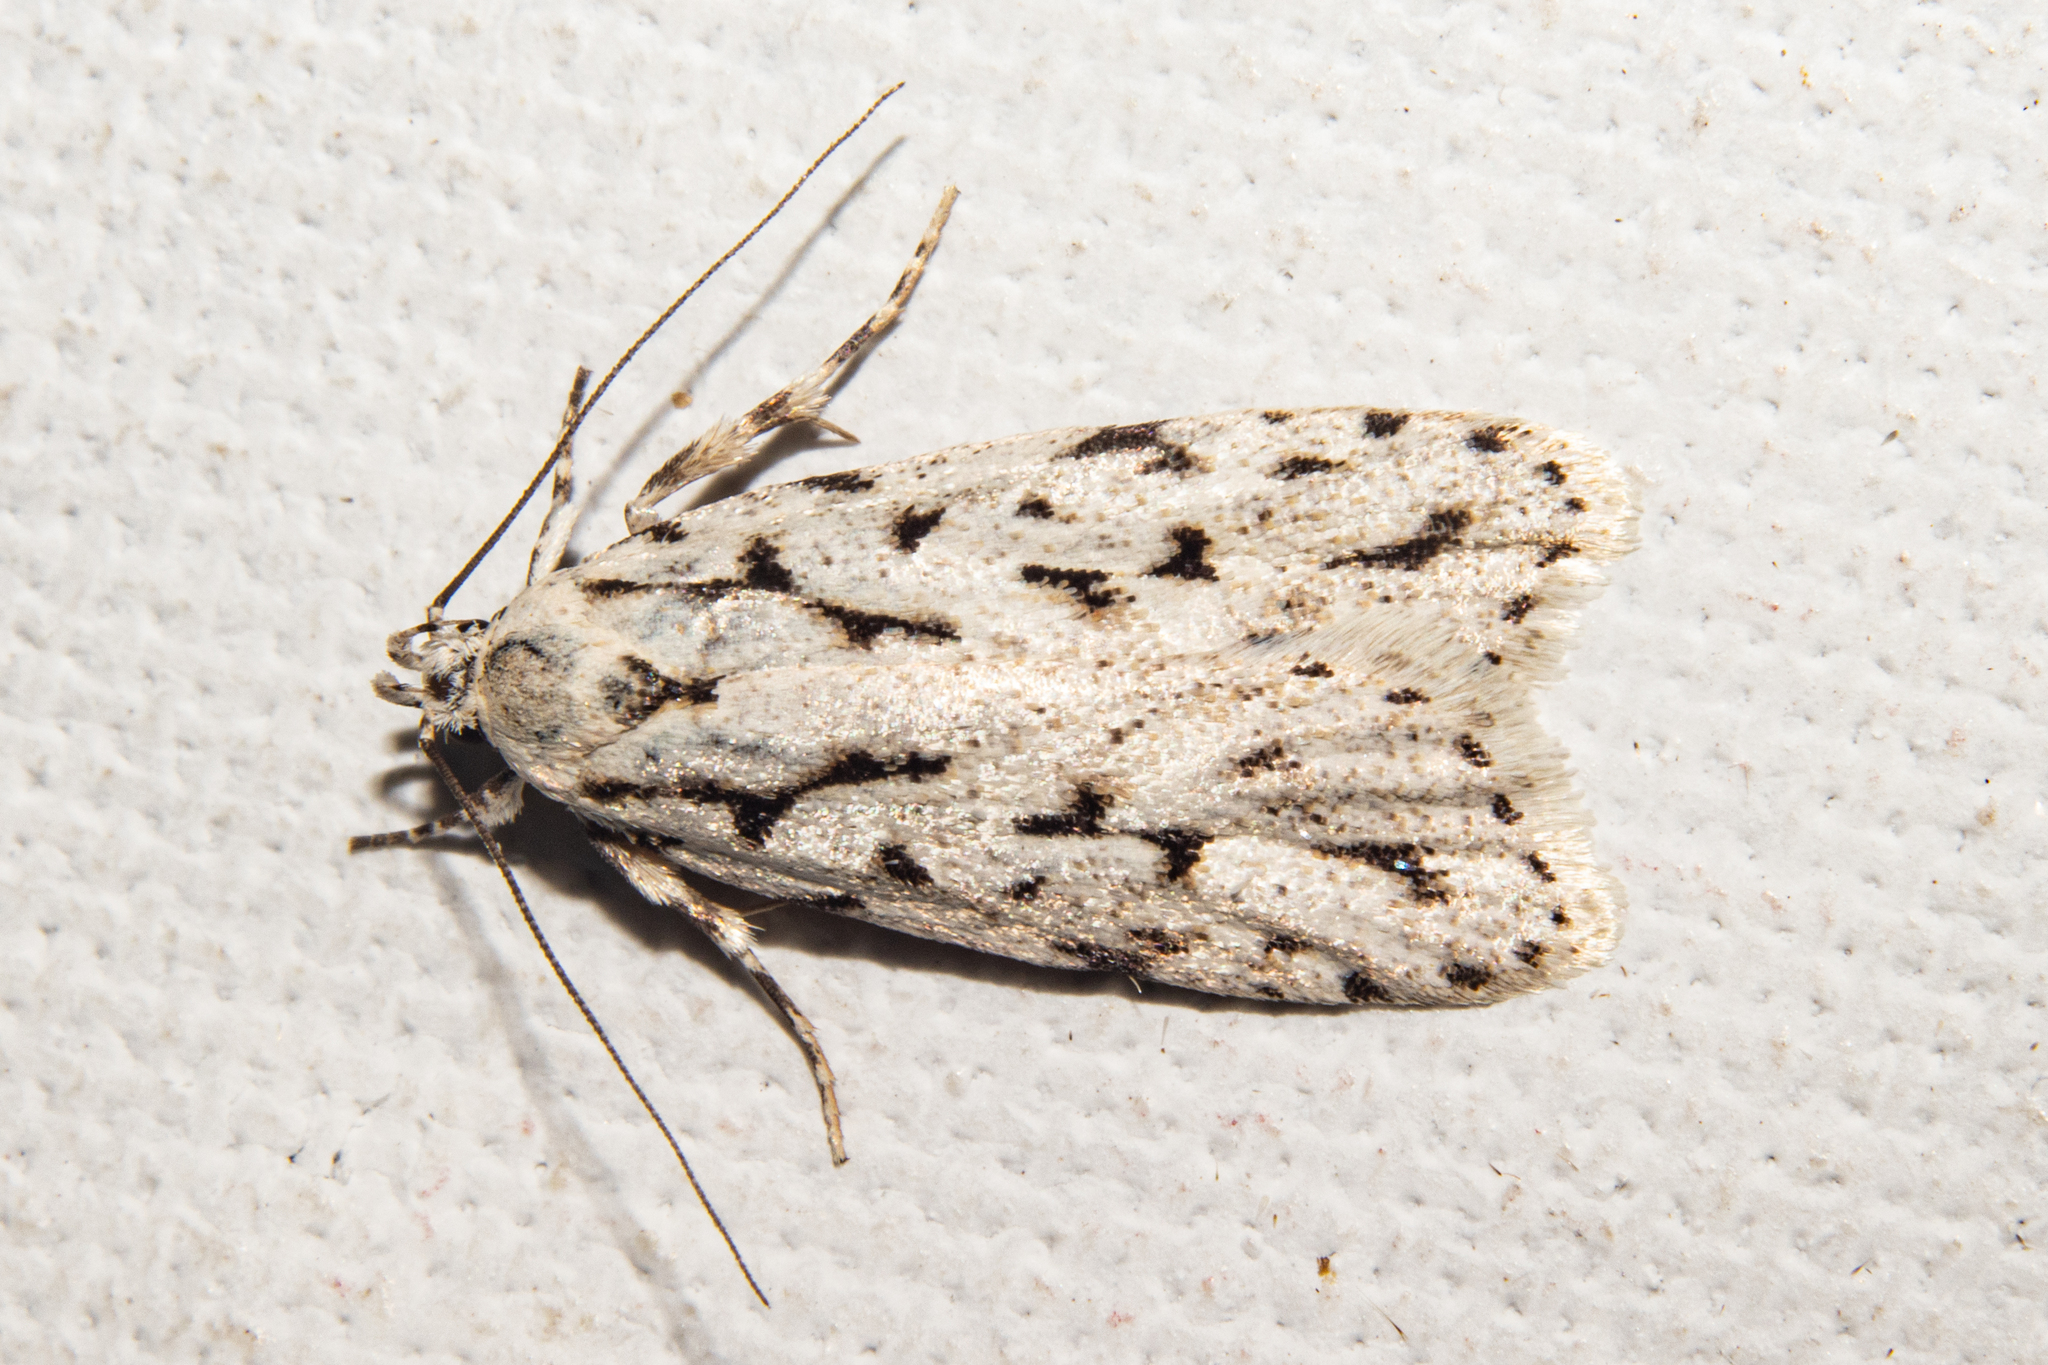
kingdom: Animalia
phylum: Arthropoda
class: Insecta
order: Lepidoptera
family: Oecophoridae
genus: Izatha
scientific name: Izatha heroica
